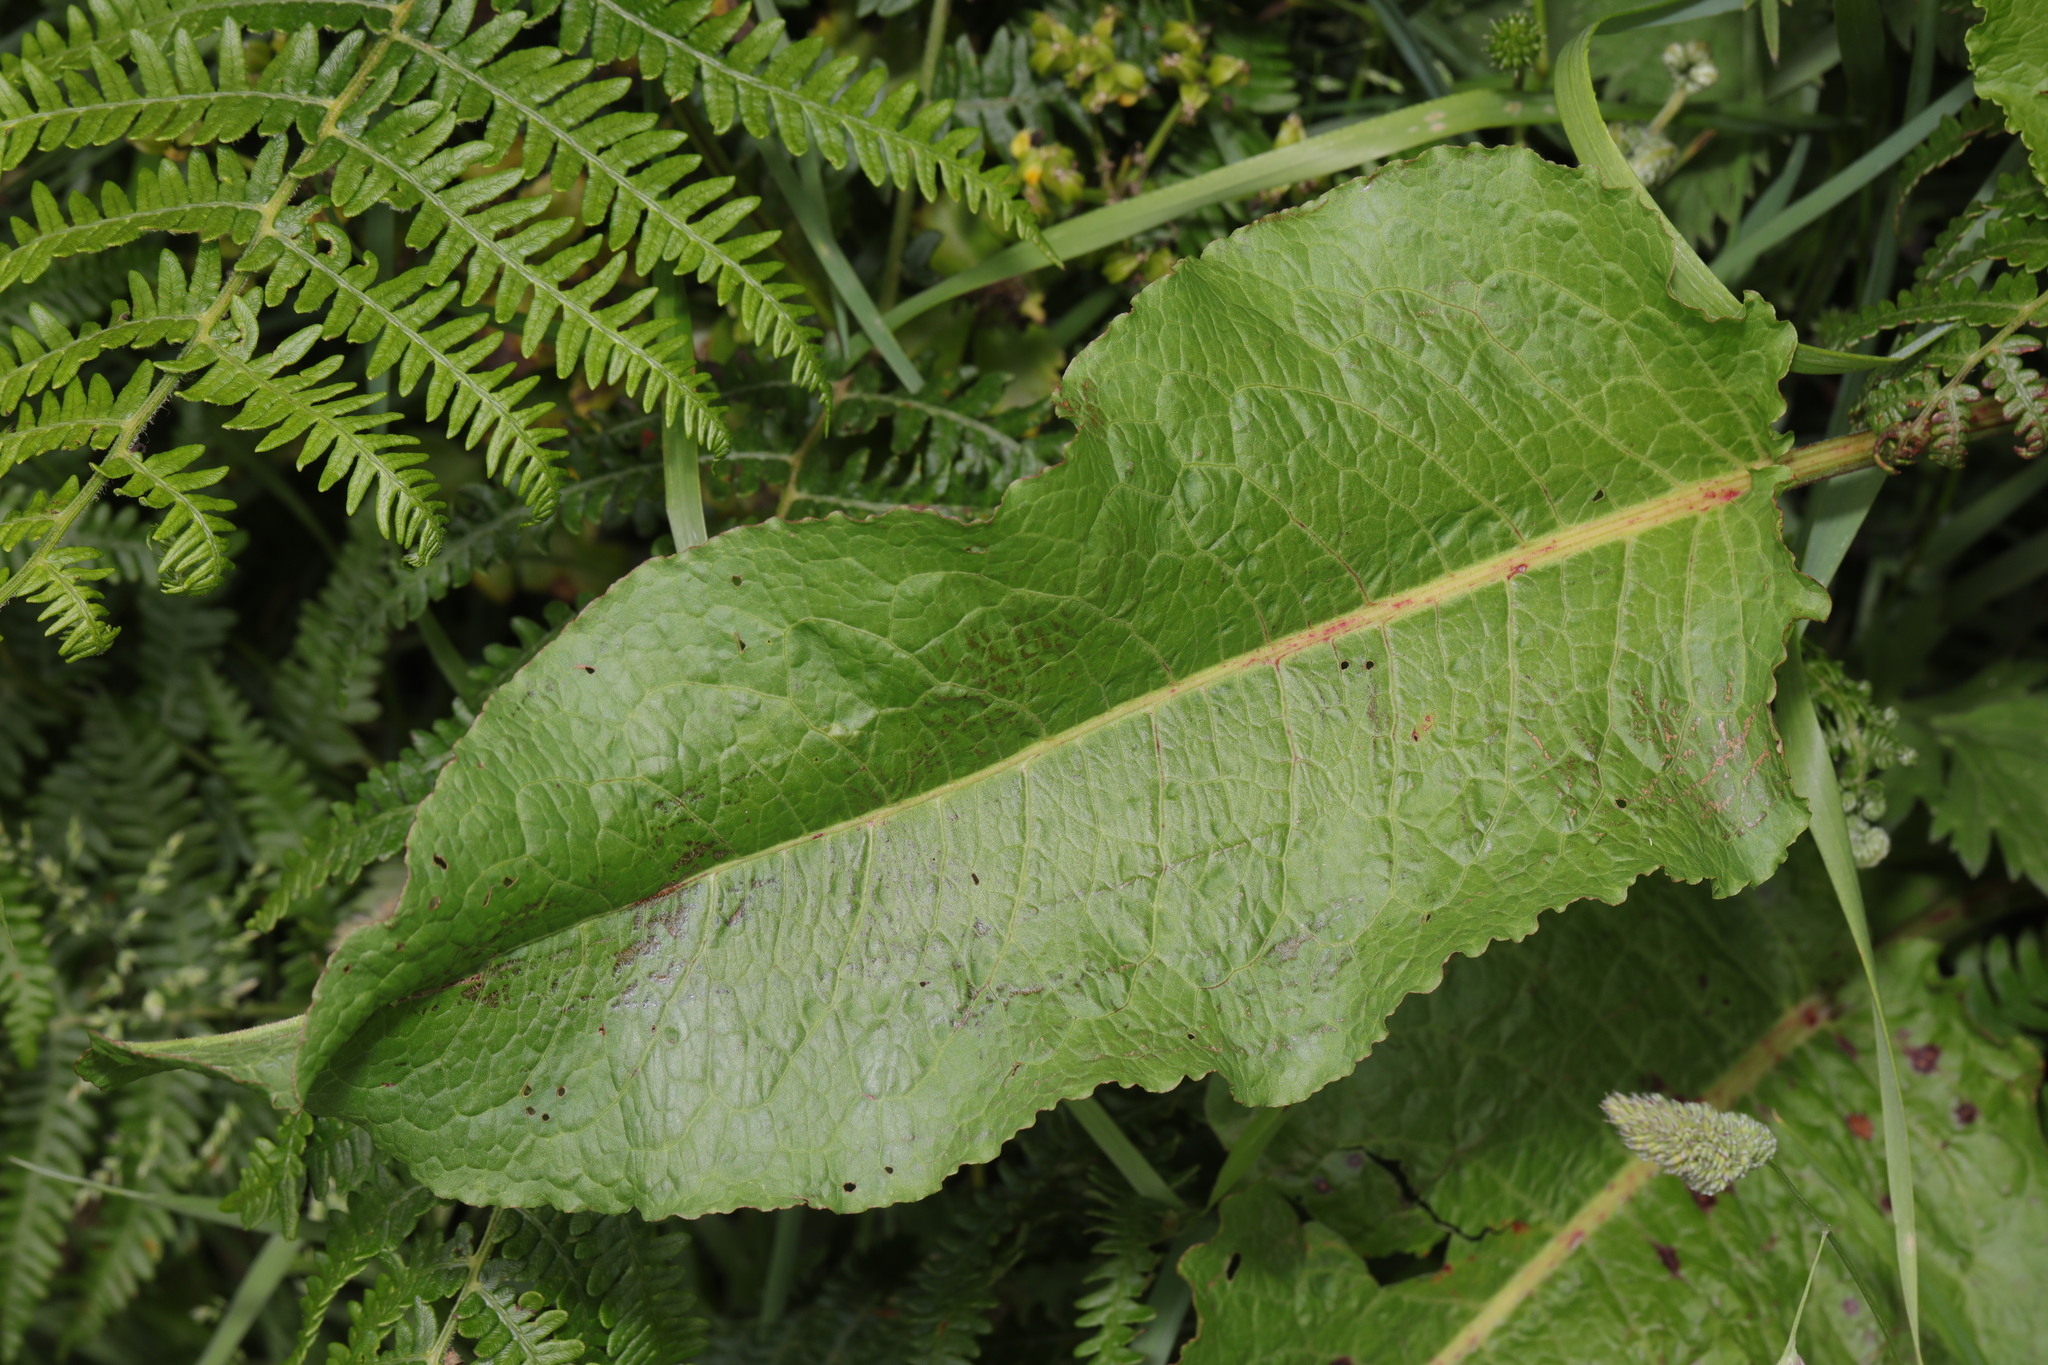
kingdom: Plantae
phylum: Tracheophyta
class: Magnoliopsida
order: Caryophyllales
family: Polygonaceae
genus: Rumex
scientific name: Rumex obtusifolius
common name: Bitter dock
